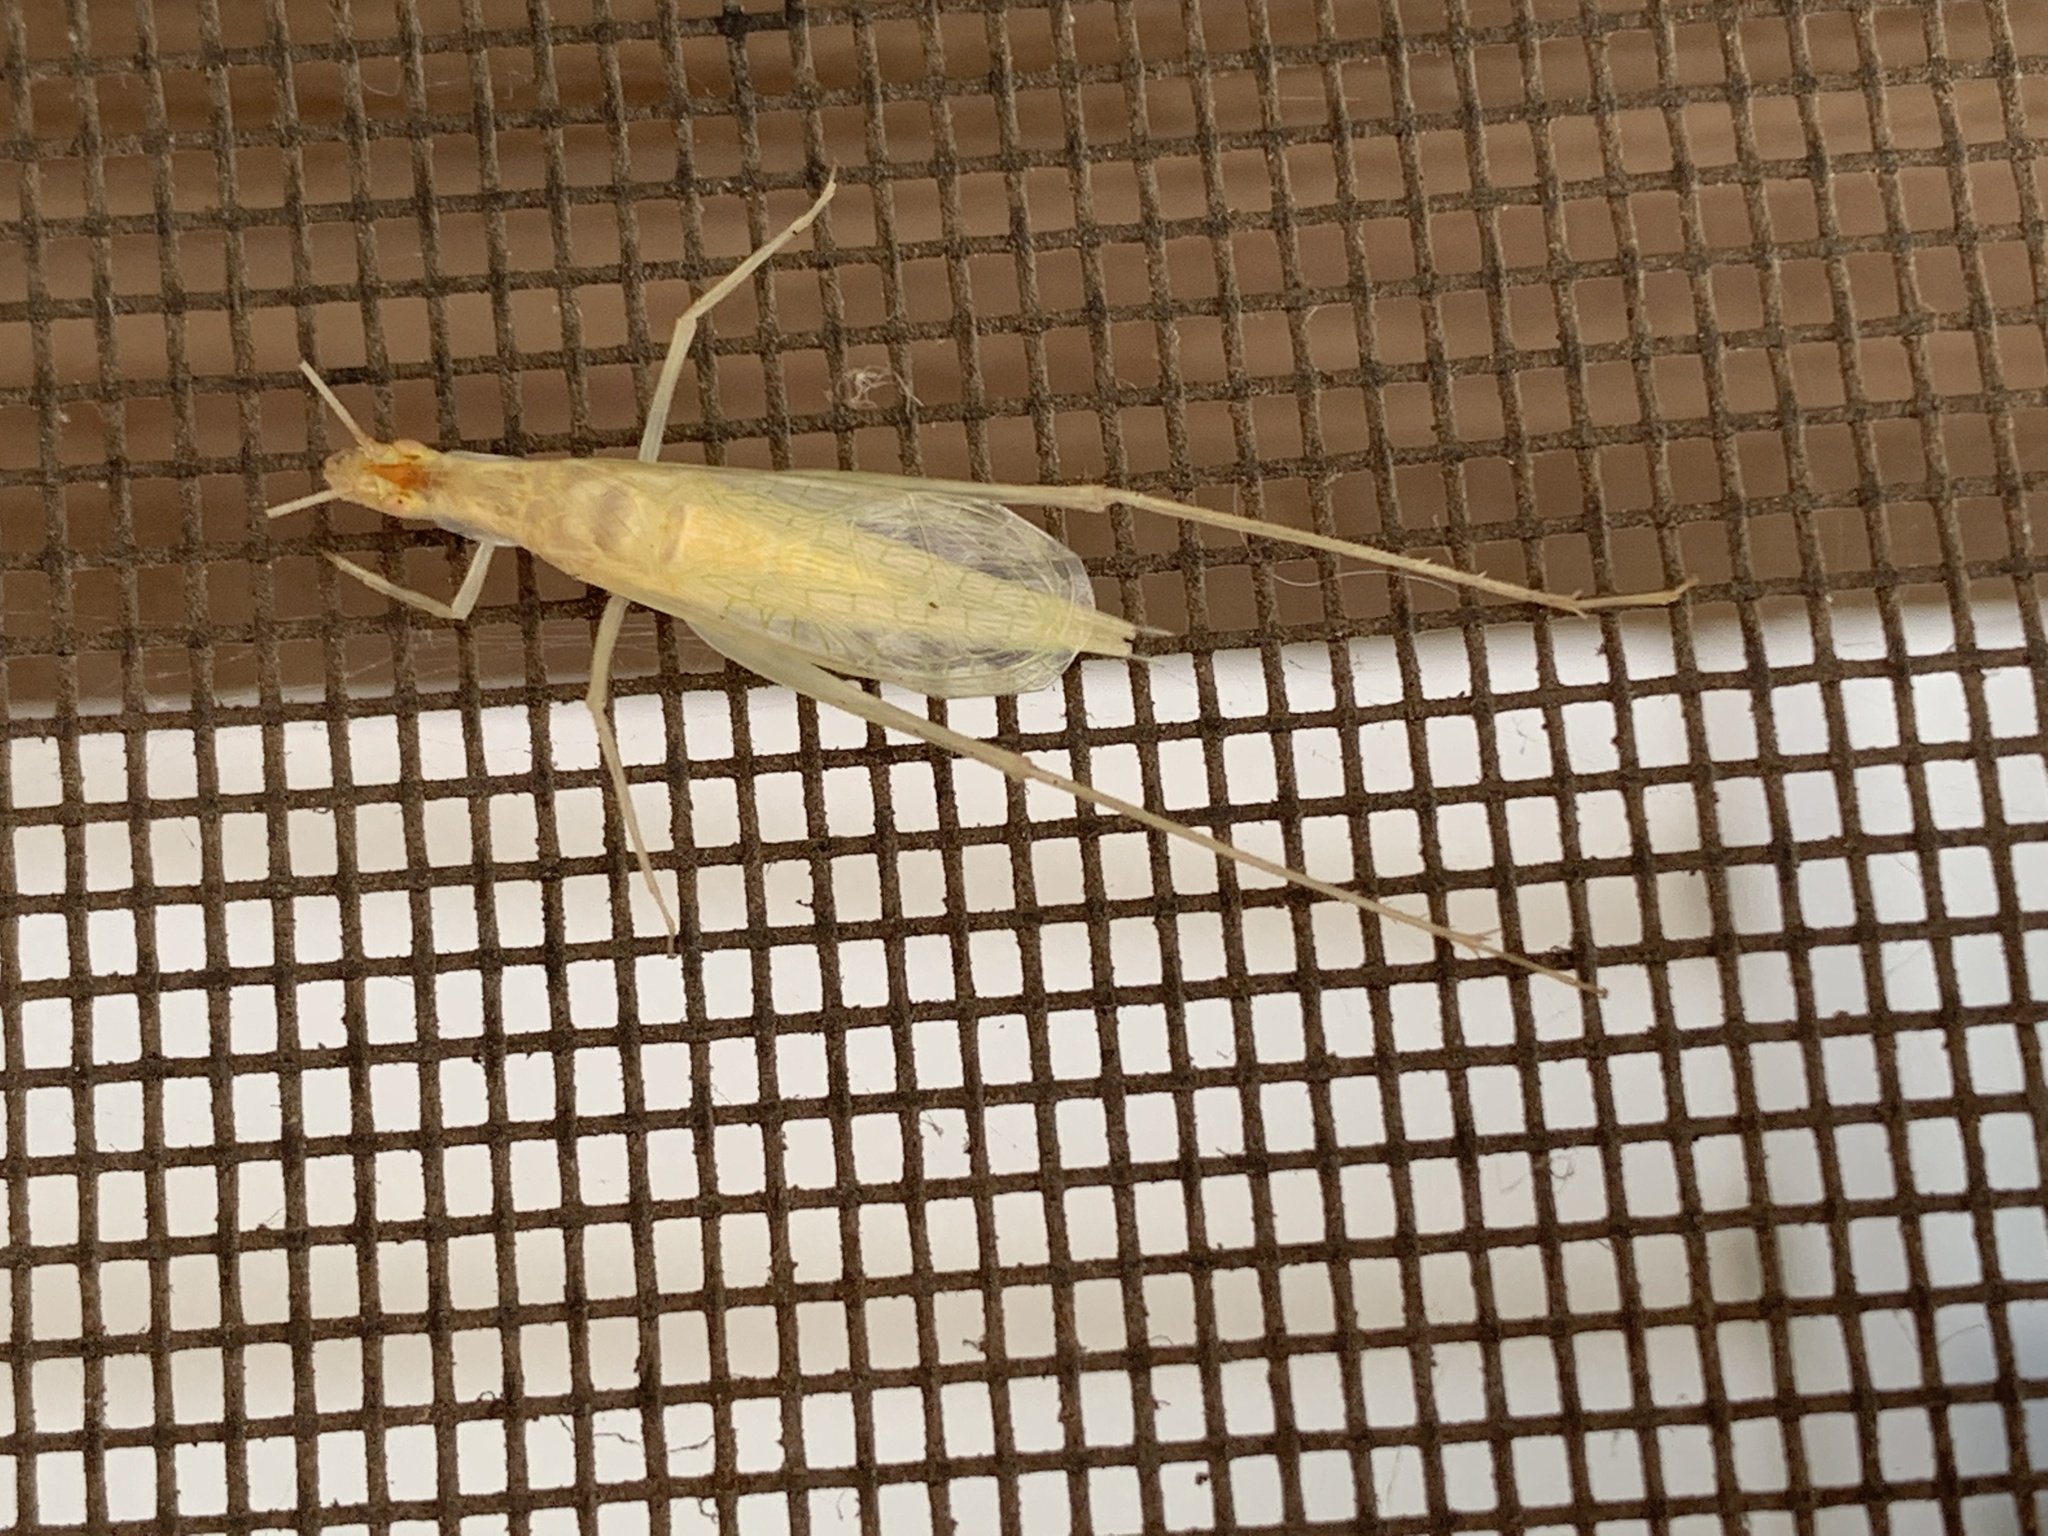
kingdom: Animalia
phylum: Arthropoda
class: Insecta
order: Orthoptera
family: Gryllidae
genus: Oecanthus
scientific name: Oecanthus niveus
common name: Narrow-winged tree cricket
